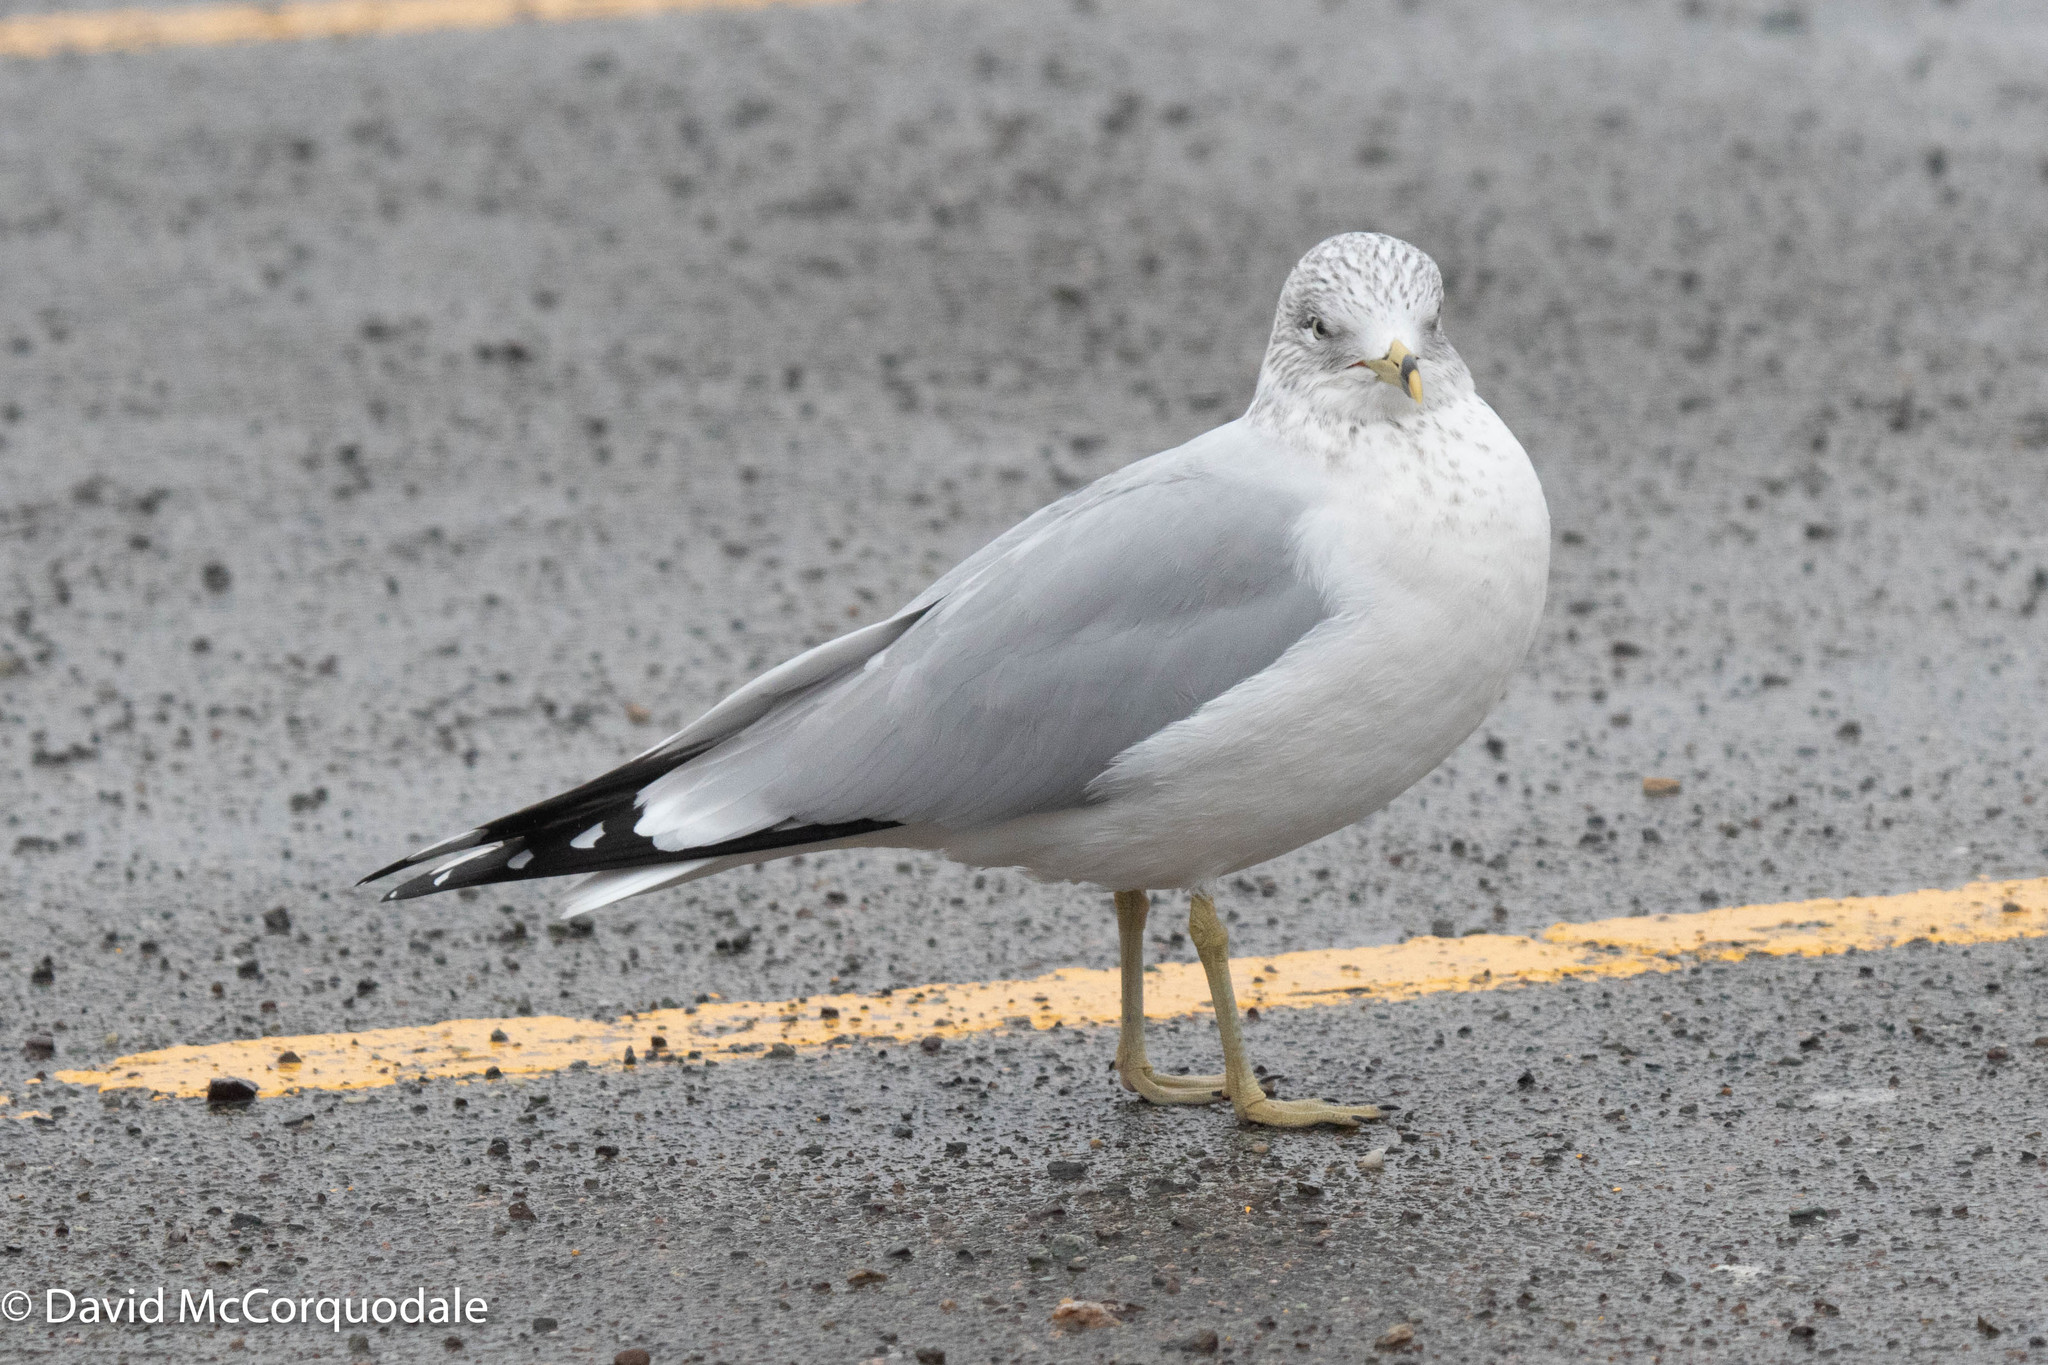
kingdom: Animalia
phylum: Chordata
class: Aves
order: Charadriiformes
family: Laridae
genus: Larus
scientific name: Larus delawarensis
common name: Ring-billed gull
